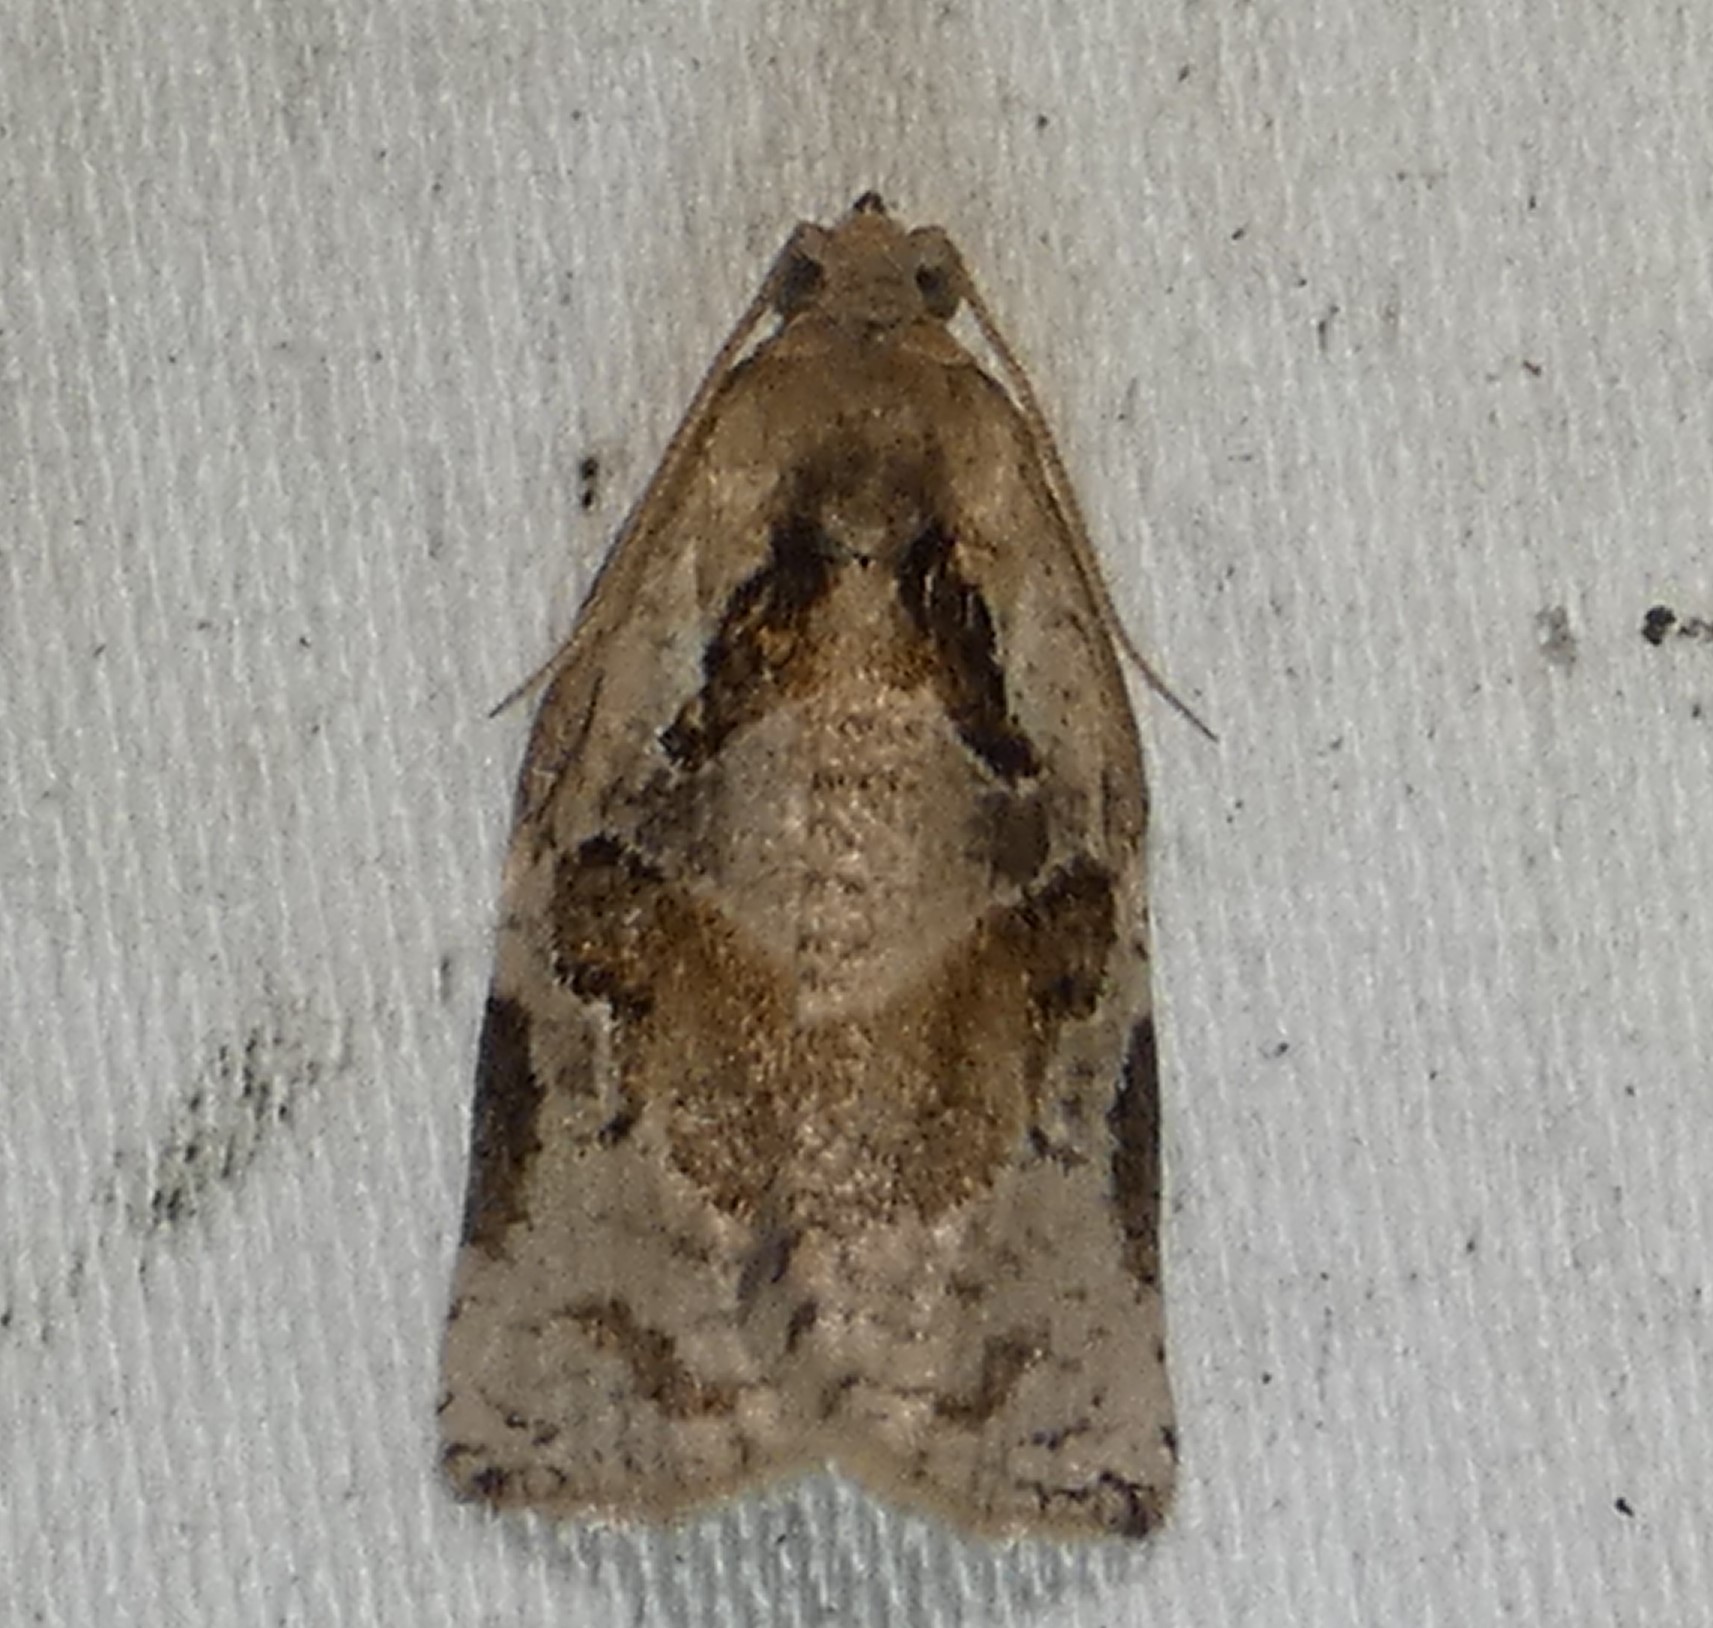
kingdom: Animalia
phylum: Arthropoda
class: Insecta
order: Lepidoptera
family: Tortricidae
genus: Archips
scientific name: Archips grisea
